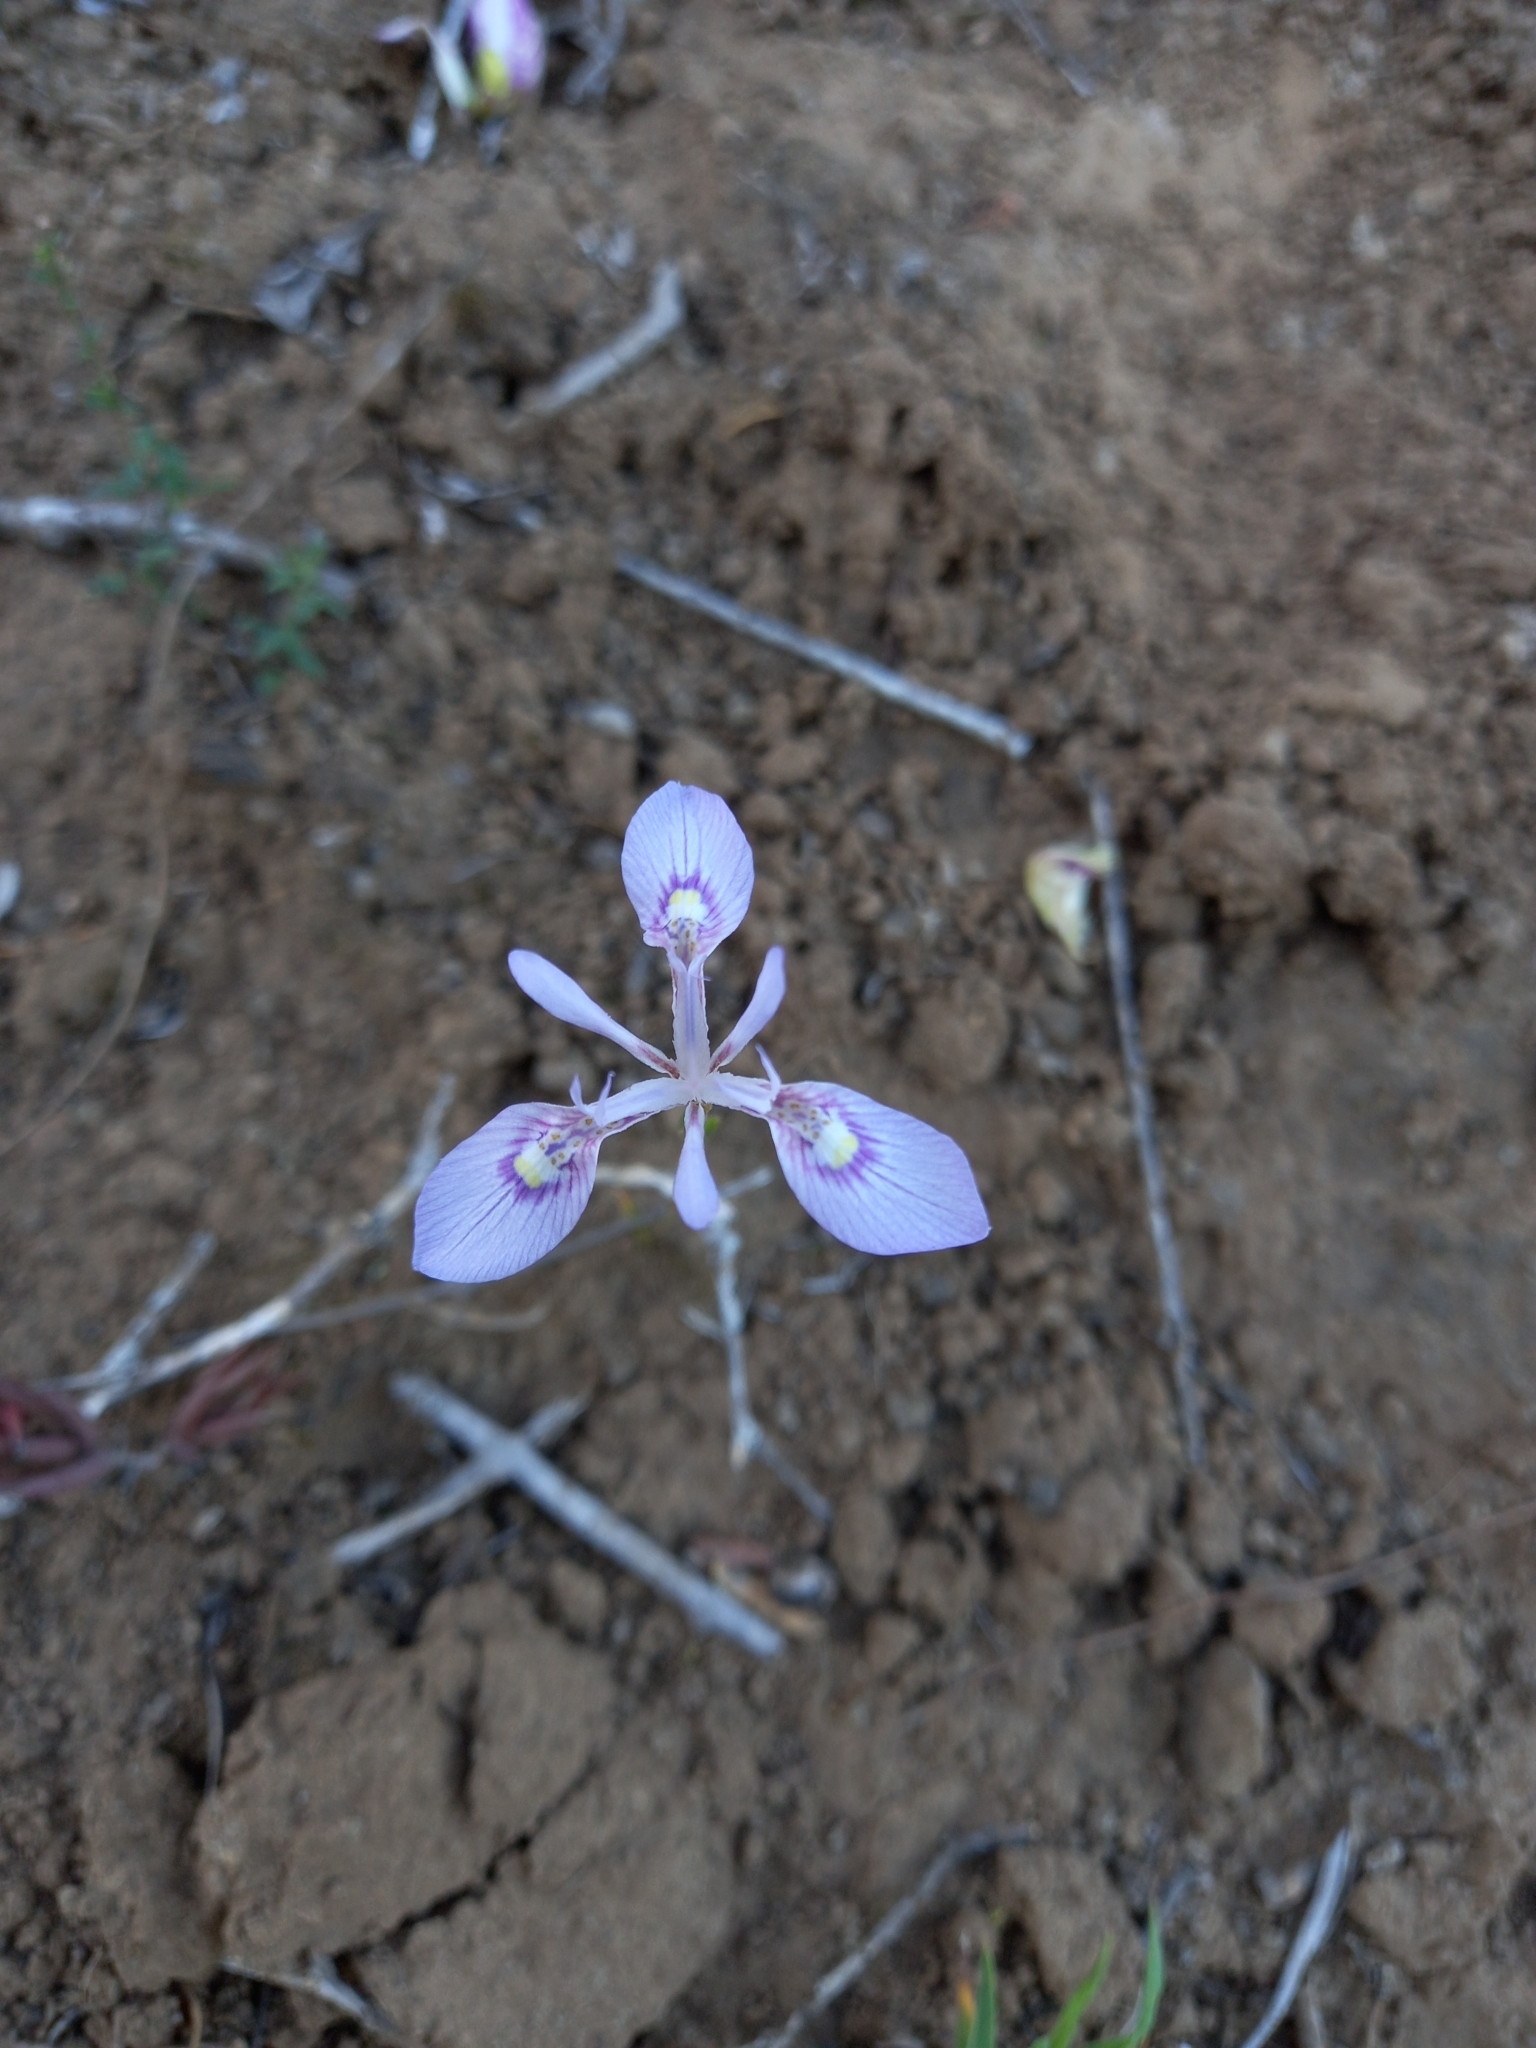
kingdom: Plantae
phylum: Tracheophyta
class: Liliopsida
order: Asparagales
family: Iridaceae
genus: Moraea
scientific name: Moraea elliotii
